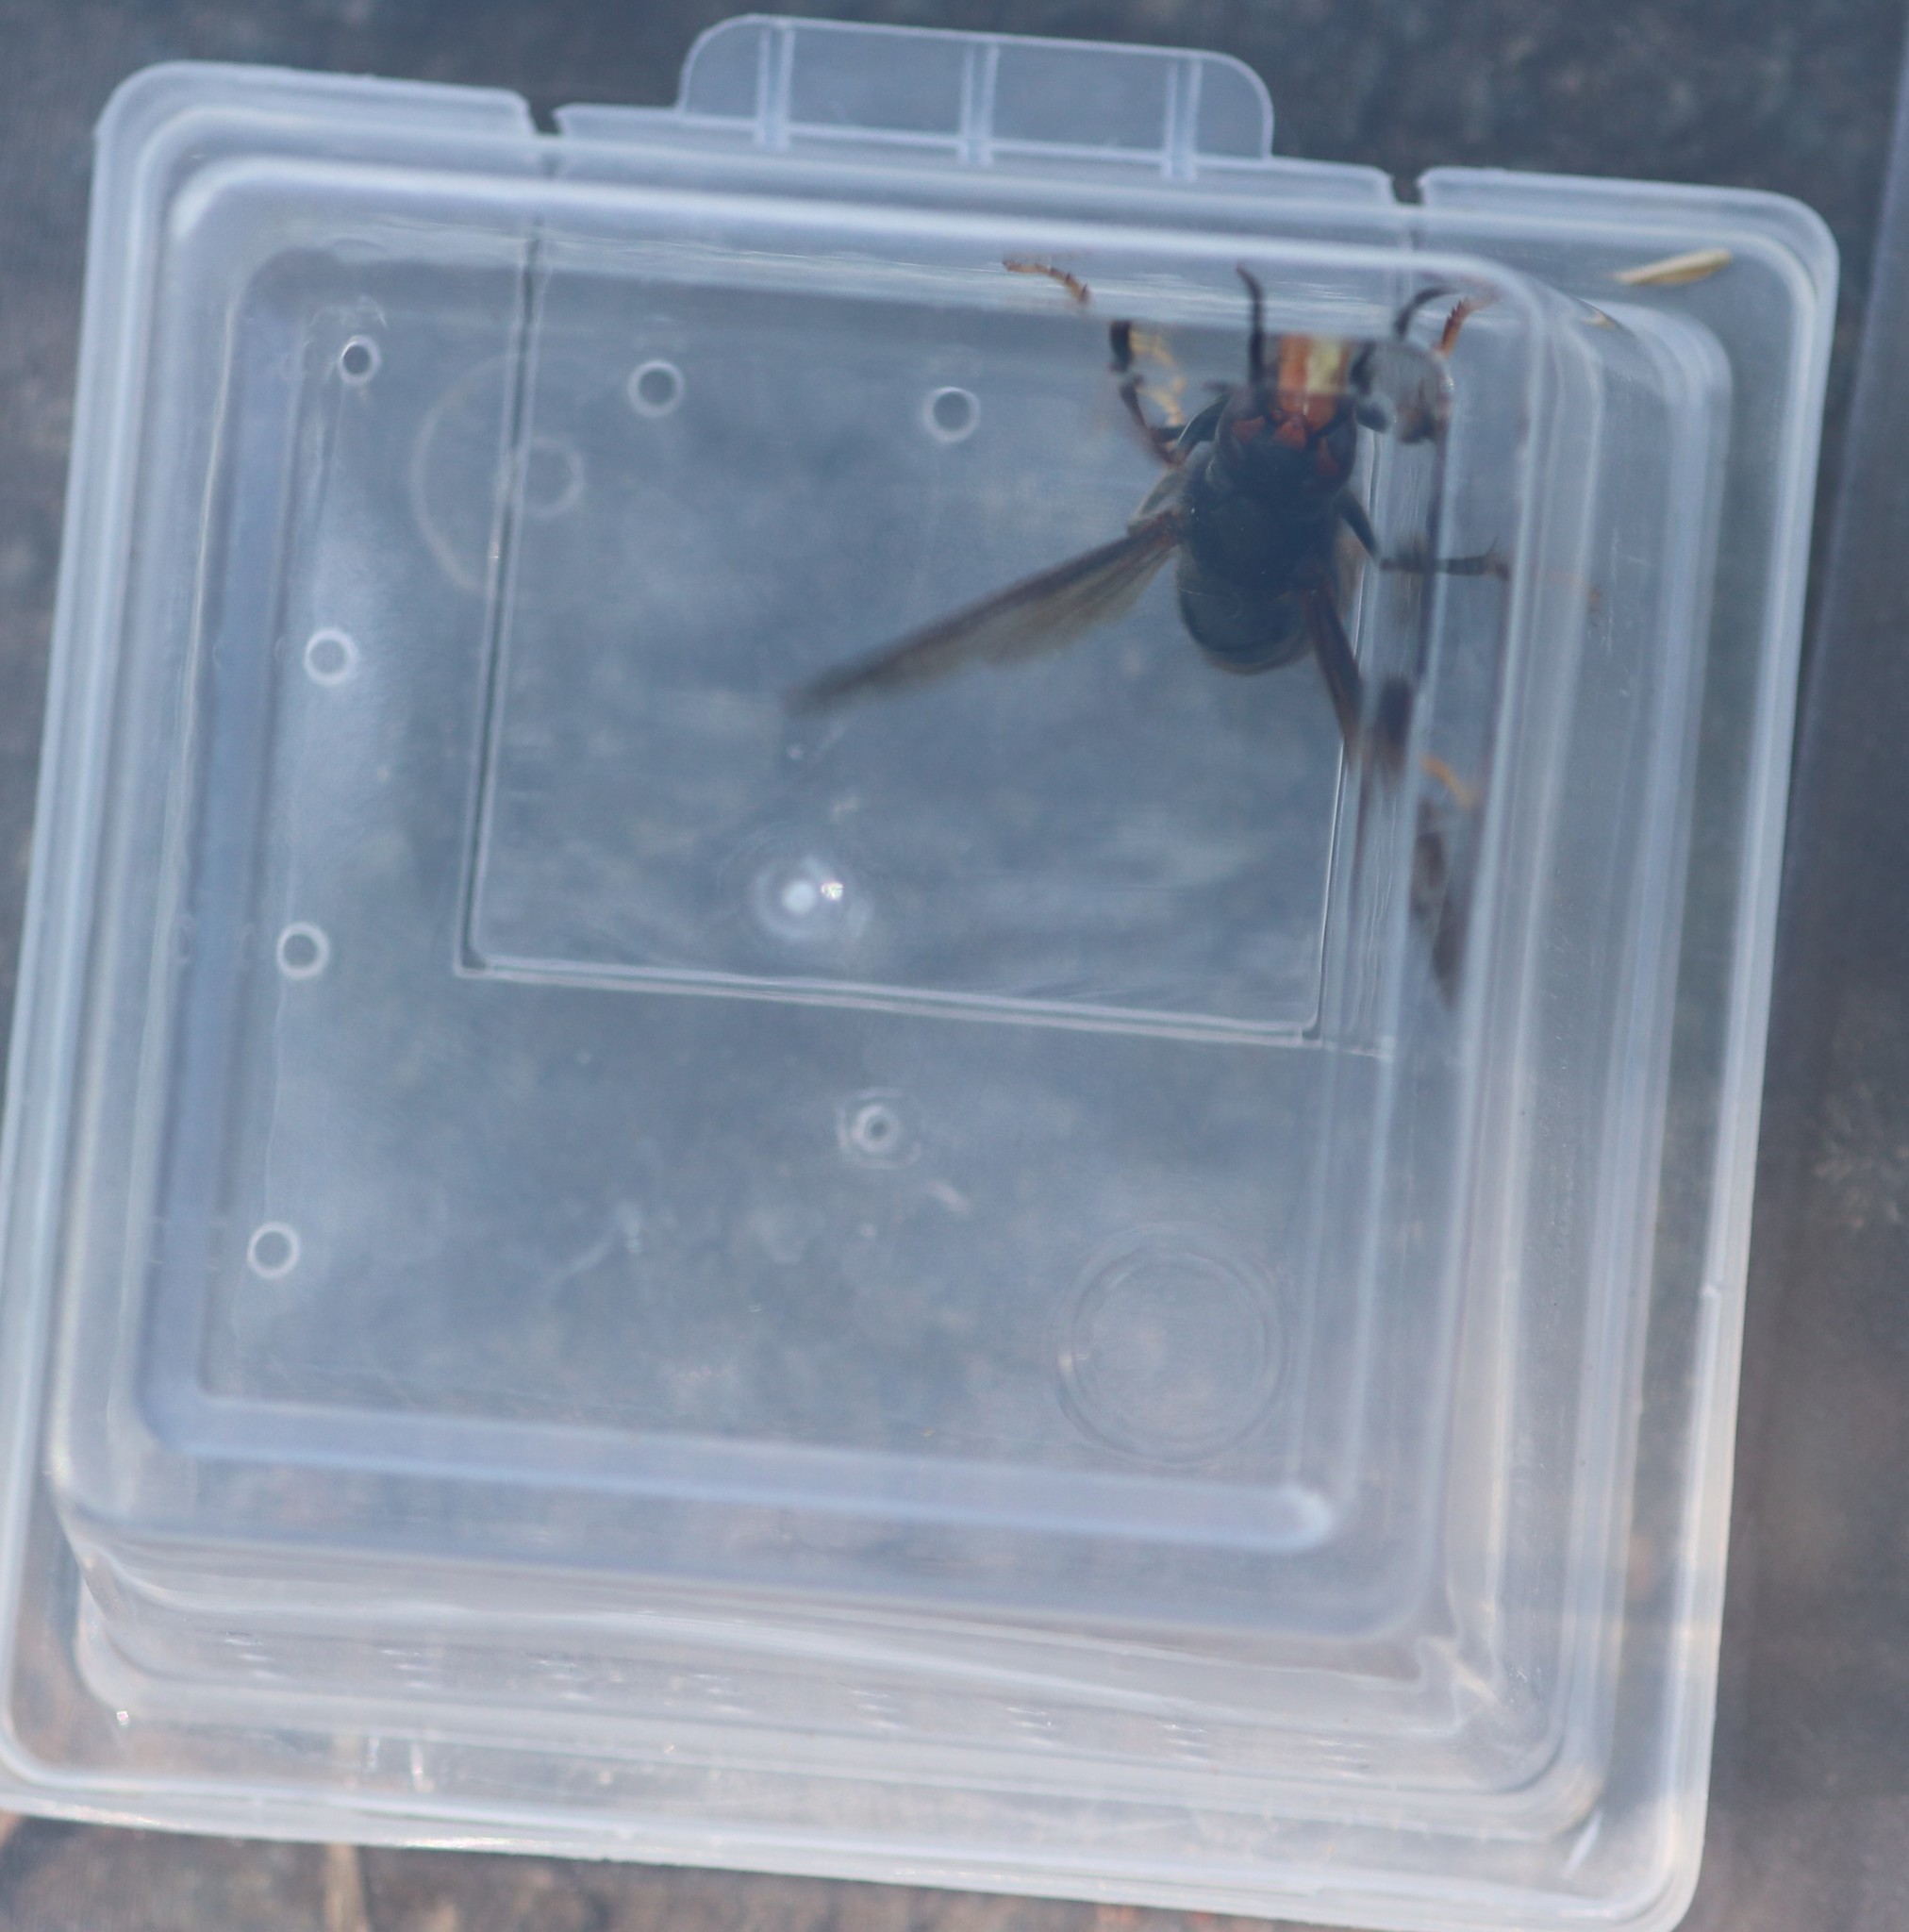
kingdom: Animalia
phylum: Arthropoda
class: Insecta
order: Hymenoptera
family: Vespidae
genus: Vespa
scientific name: Vespa velutina
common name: Asian hornet
